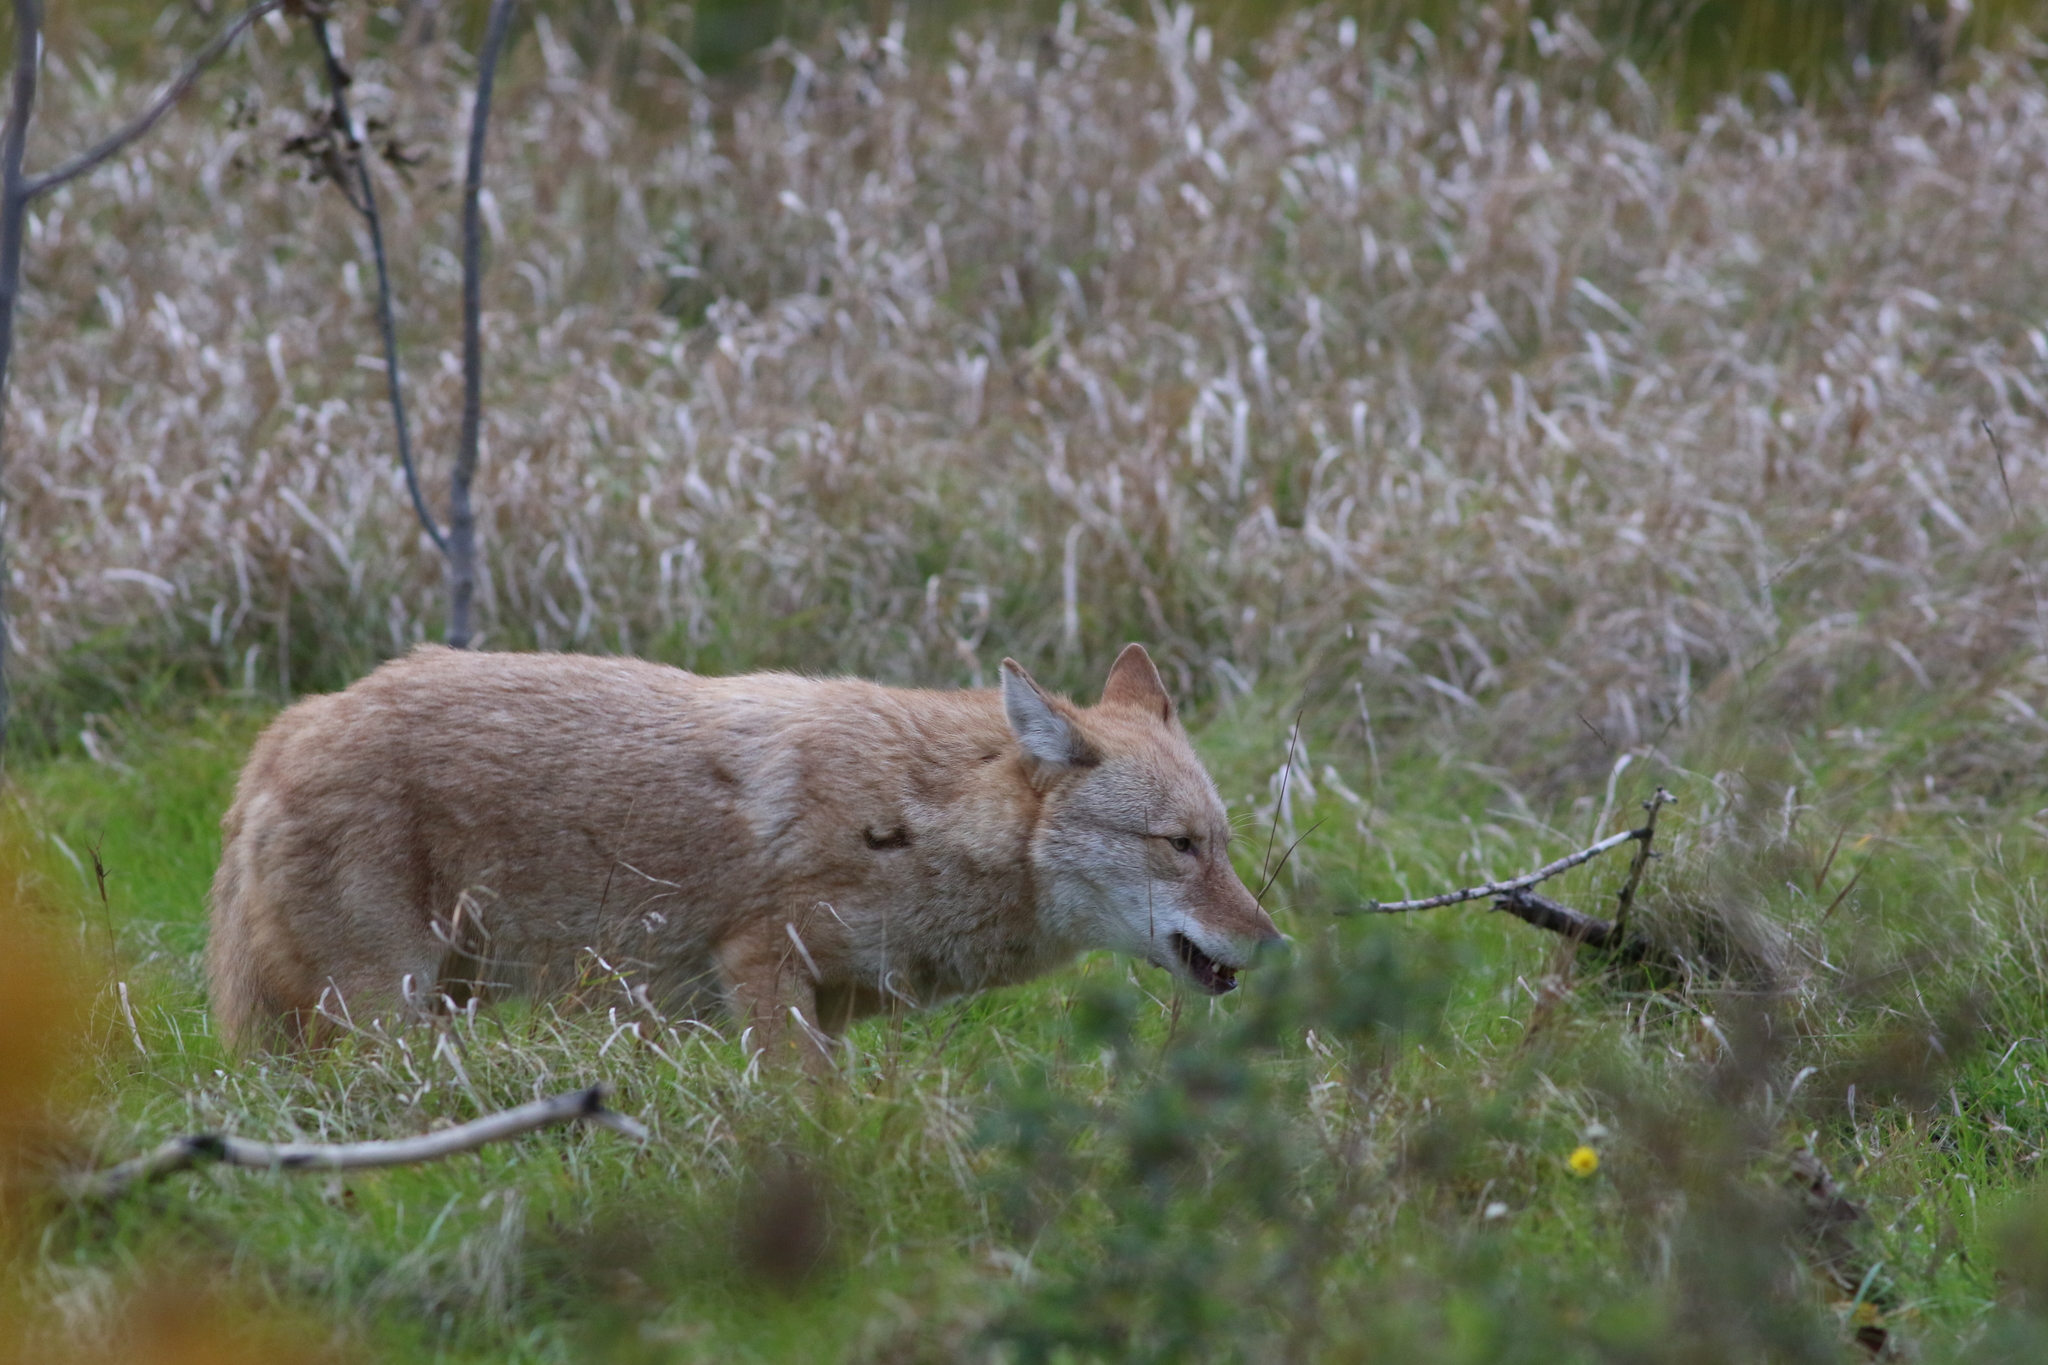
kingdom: Animalia
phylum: Chordata
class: Mammalia
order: Carnivora
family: Canidae
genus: Canis
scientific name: Canis latrans
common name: Coyote
